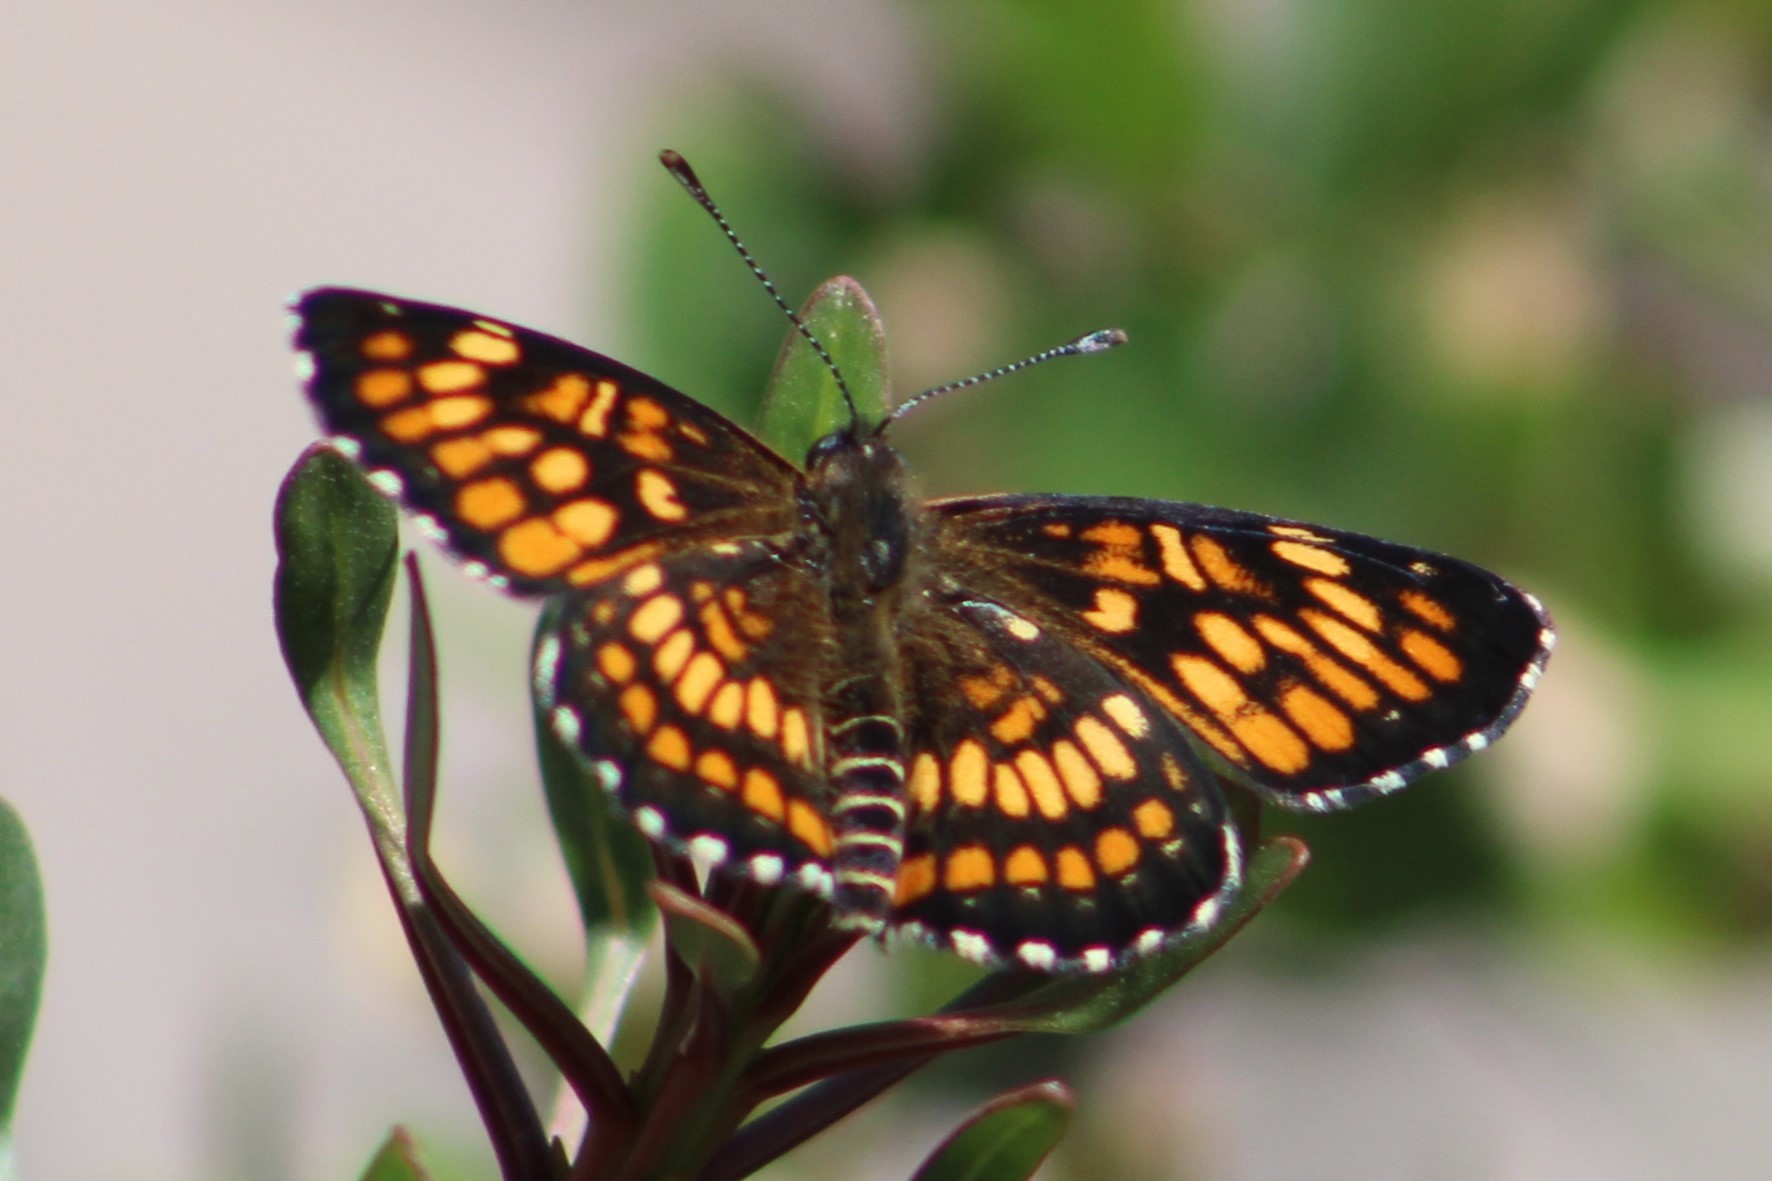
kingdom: Animalia
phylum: Arthropoda
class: Insecta
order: Lepidoptera
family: Nymphalidae
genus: Thessalia
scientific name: Thessalia theona
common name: Nymphalid moth
